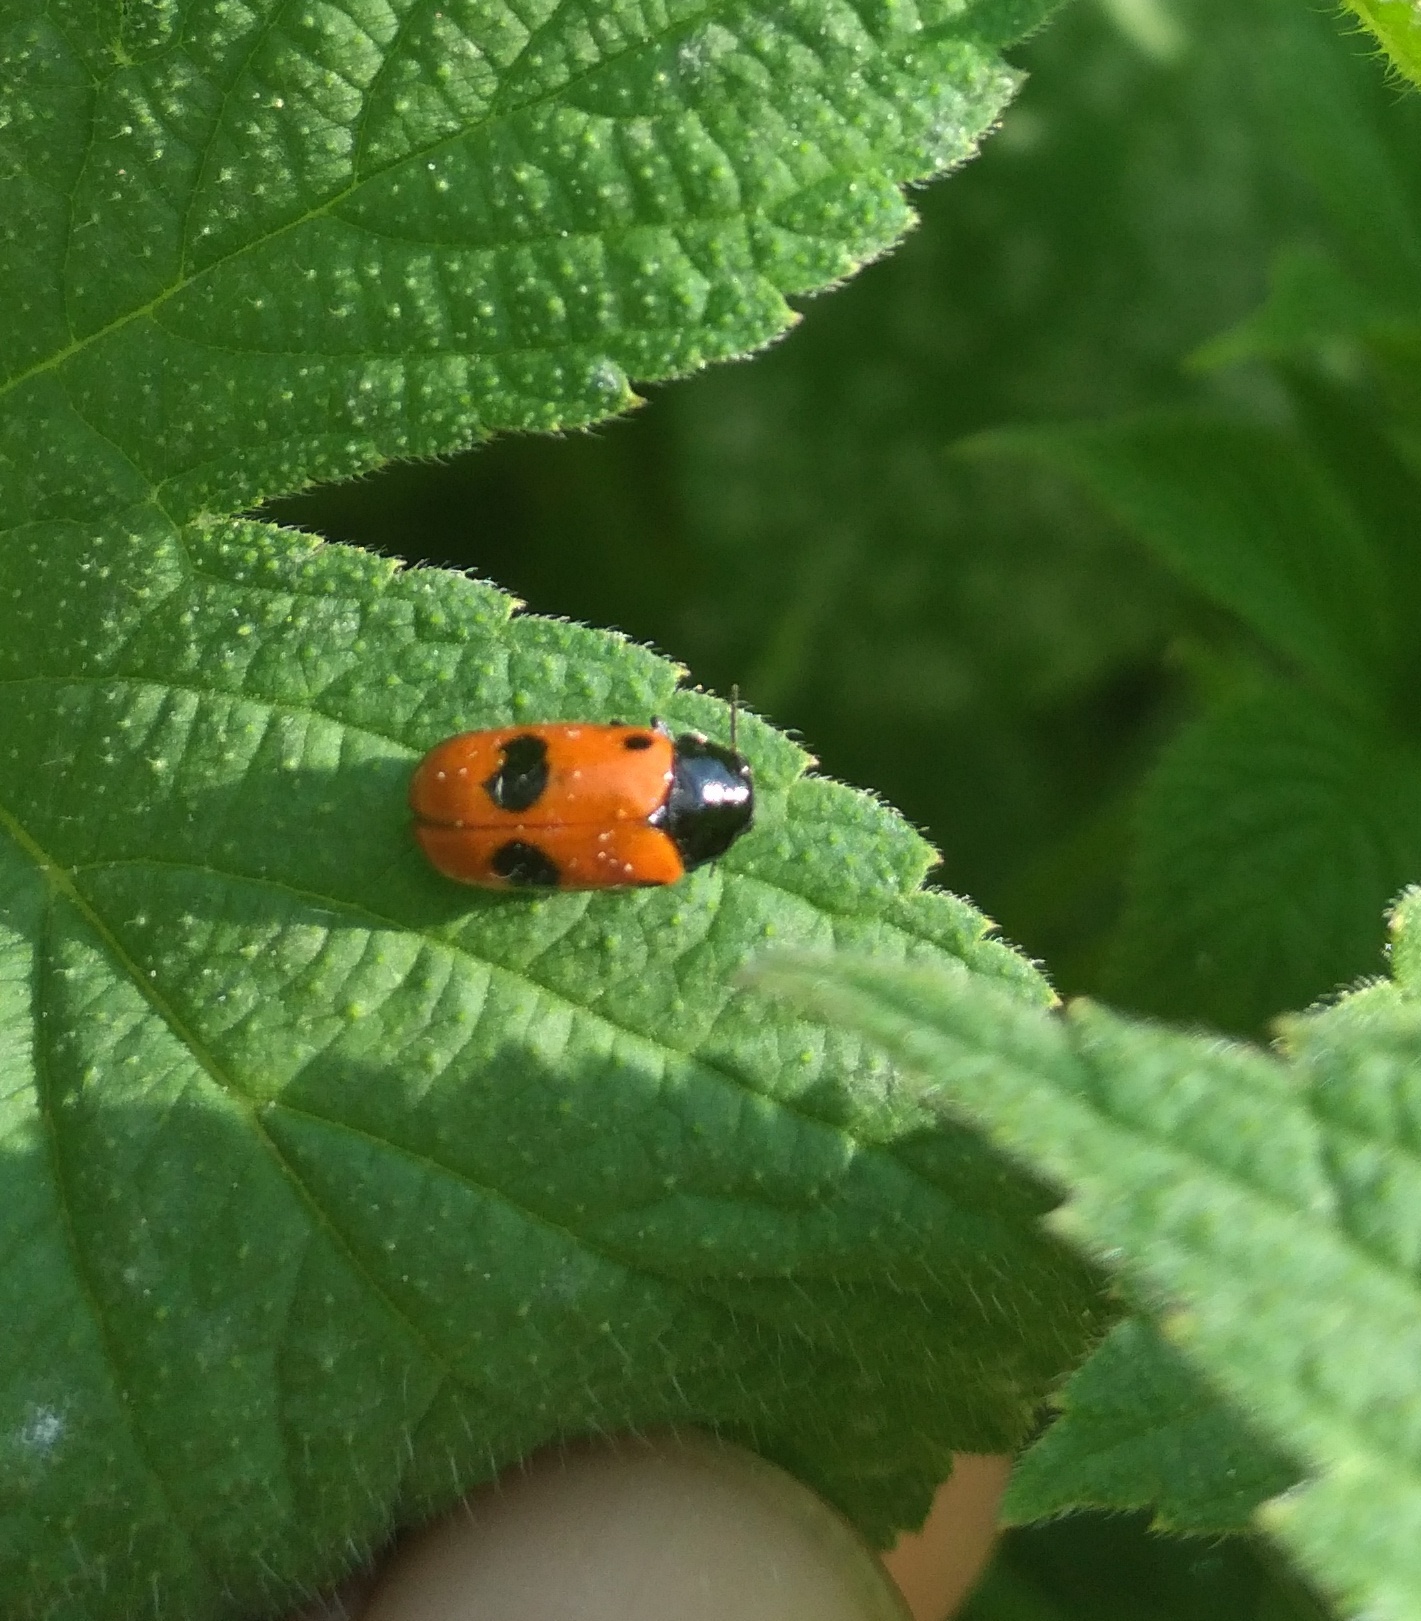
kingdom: Animalia
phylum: Arthropoda
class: Insecta
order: Coleoptera
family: Chrysomelidae
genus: Clytra
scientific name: Clytra laeviuscula
